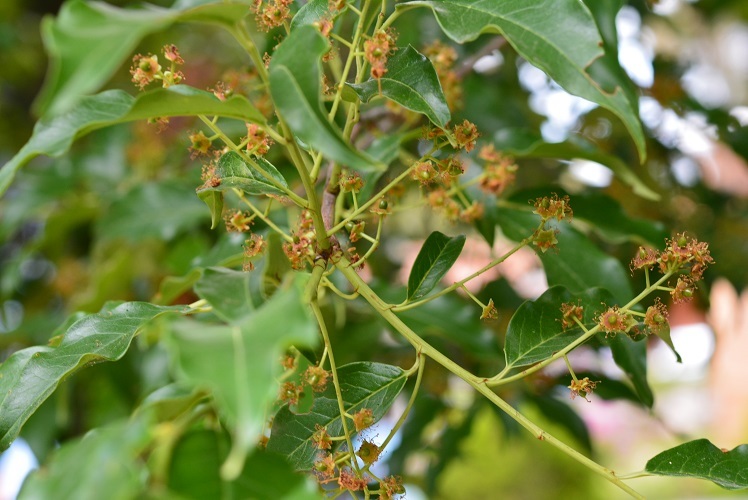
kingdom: Plantae
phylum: Tracheophyta
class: Magnoliopsida
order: Rosales
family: Rosaceae
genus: Prunus
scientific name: Prunus rhamnoides
